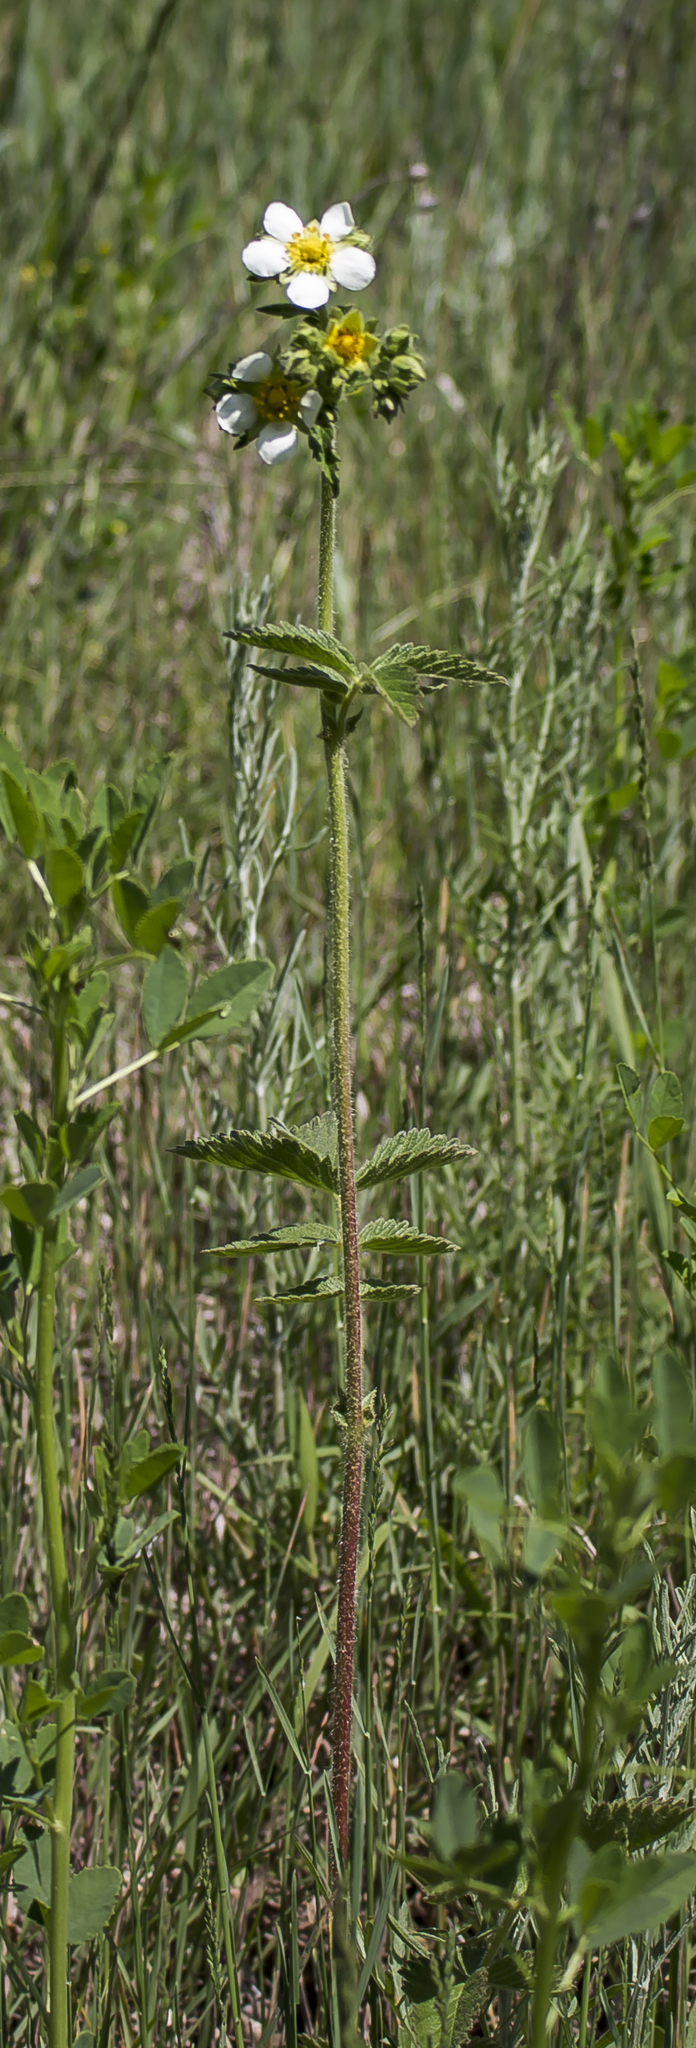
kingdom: Plantae
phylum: Tracheophyta
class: Magnoliopsida
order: Rosales
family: Rosaceae
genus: Drymocallis
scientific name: Drymocallis arguta
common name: Tall cinquefoil
